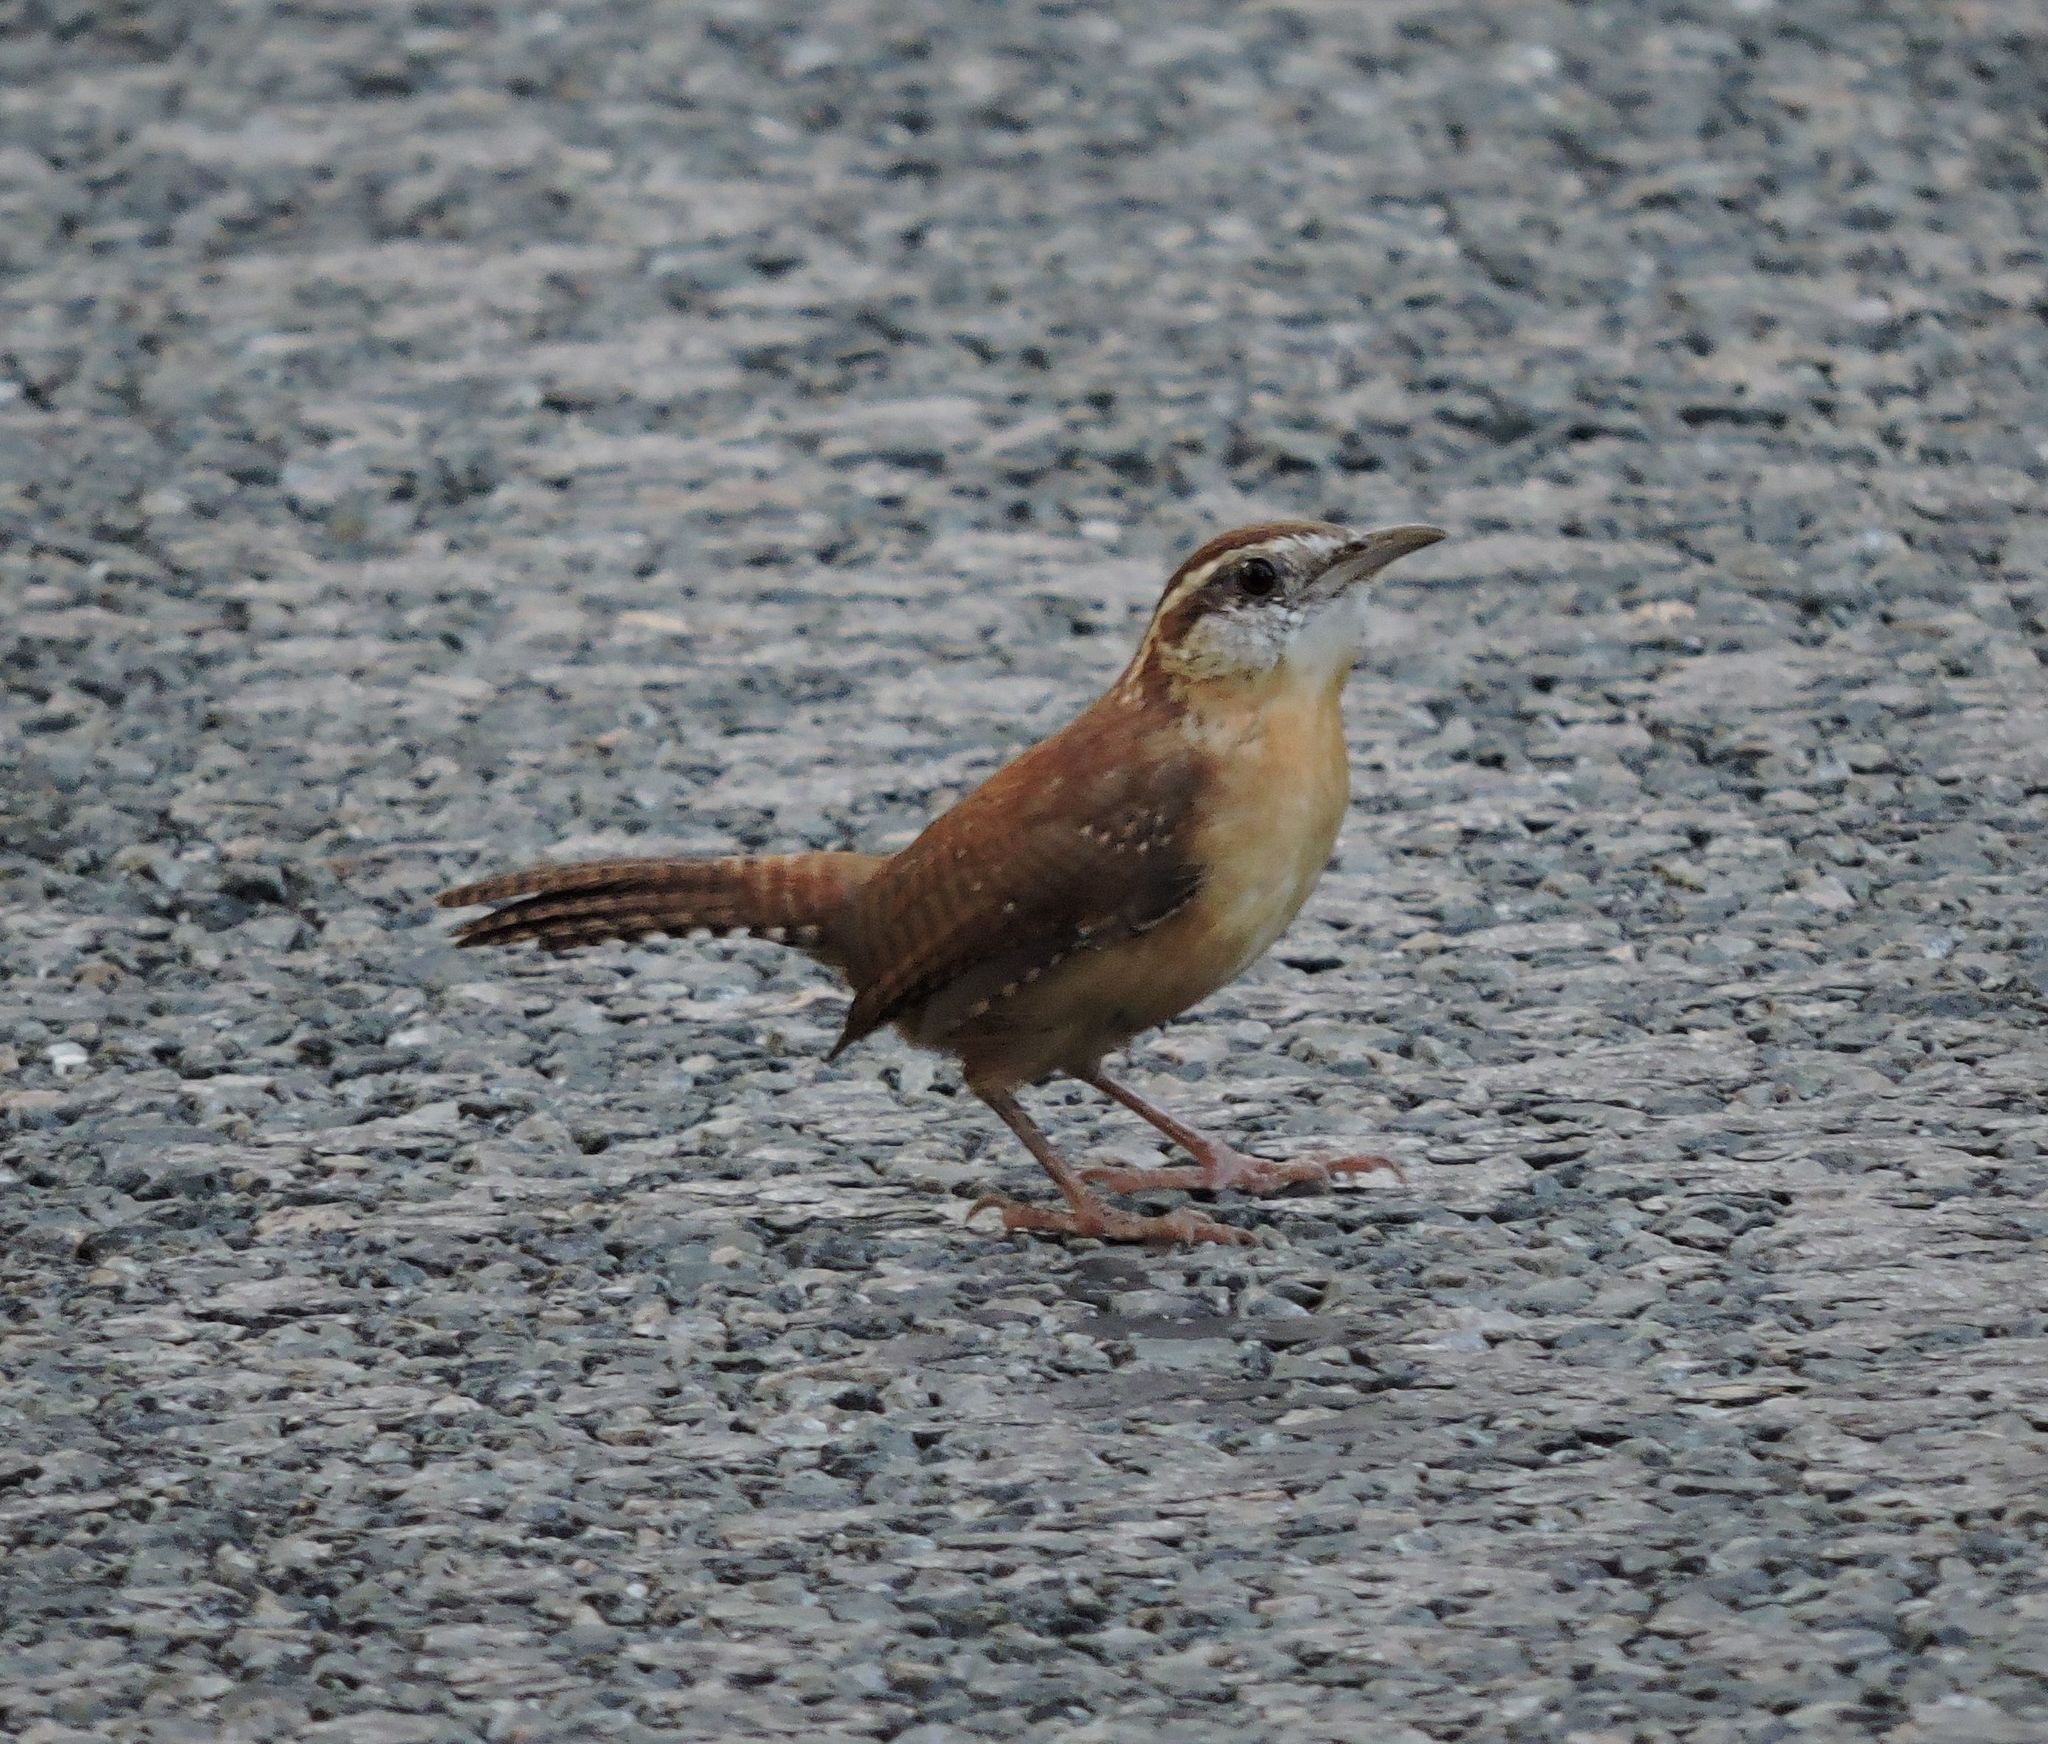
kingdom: Animalia
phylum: Chordata
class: Aves
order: Passeriformes
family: Troglodytidae
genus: Thryothorus
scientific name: Thryothorus ludovicianus
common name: Carolina wren
